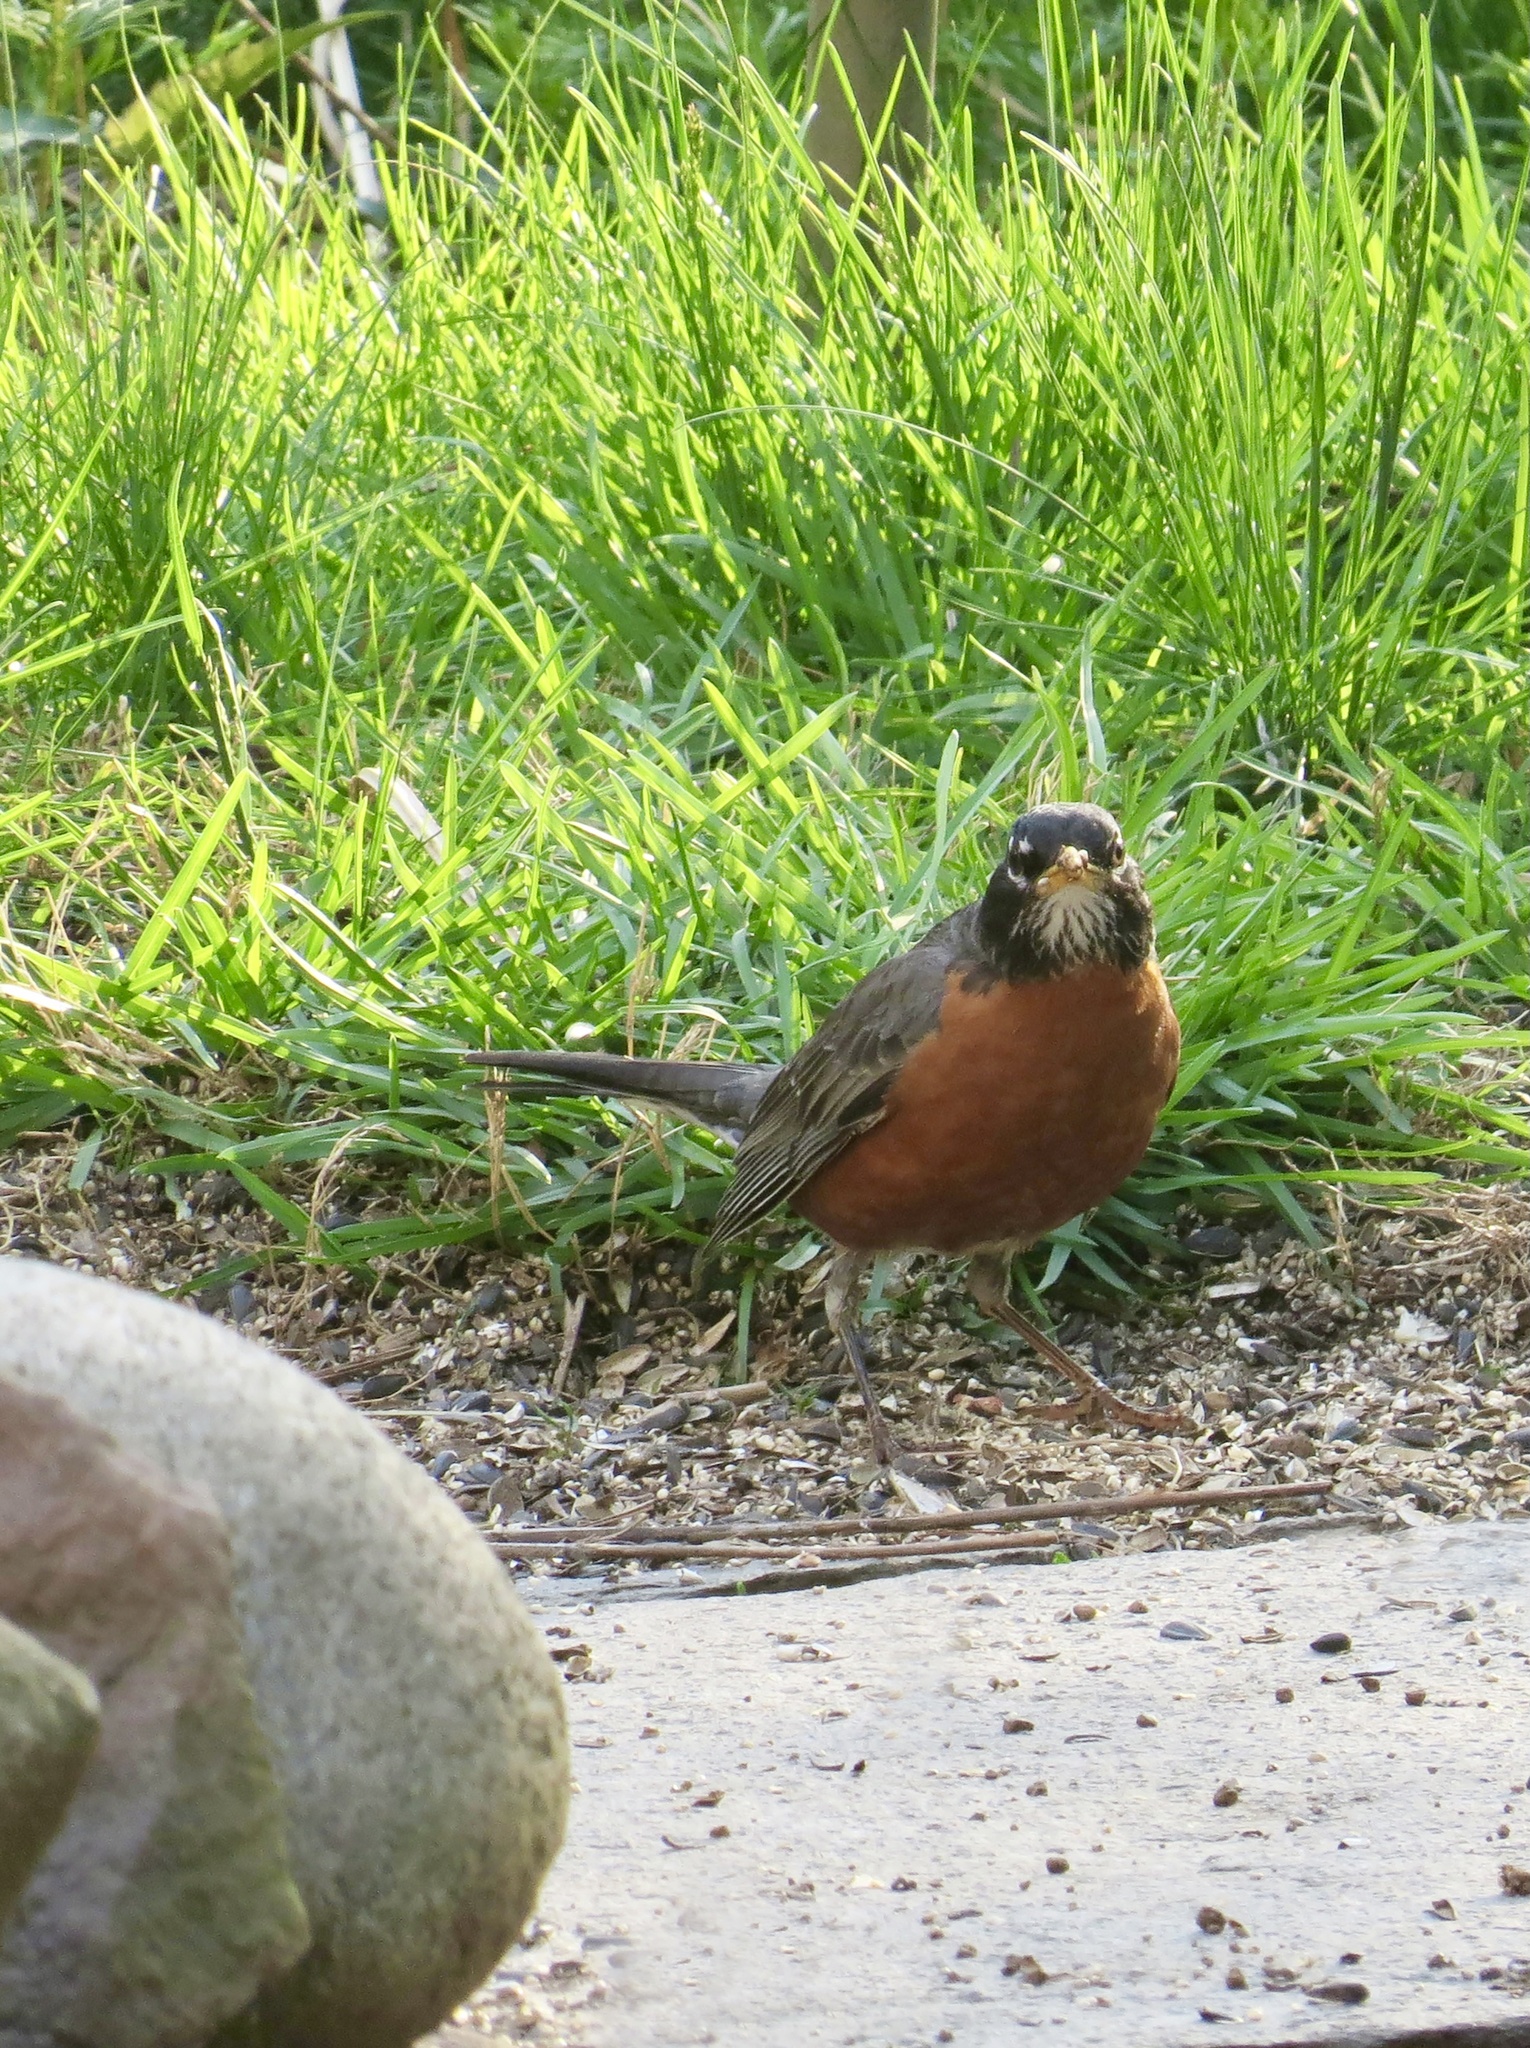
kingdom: Animalia
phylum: Chordata
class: Aves
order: Passeriformes
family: Turdidae
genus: Turdus
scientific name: Turdus migratorius
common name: American robin
